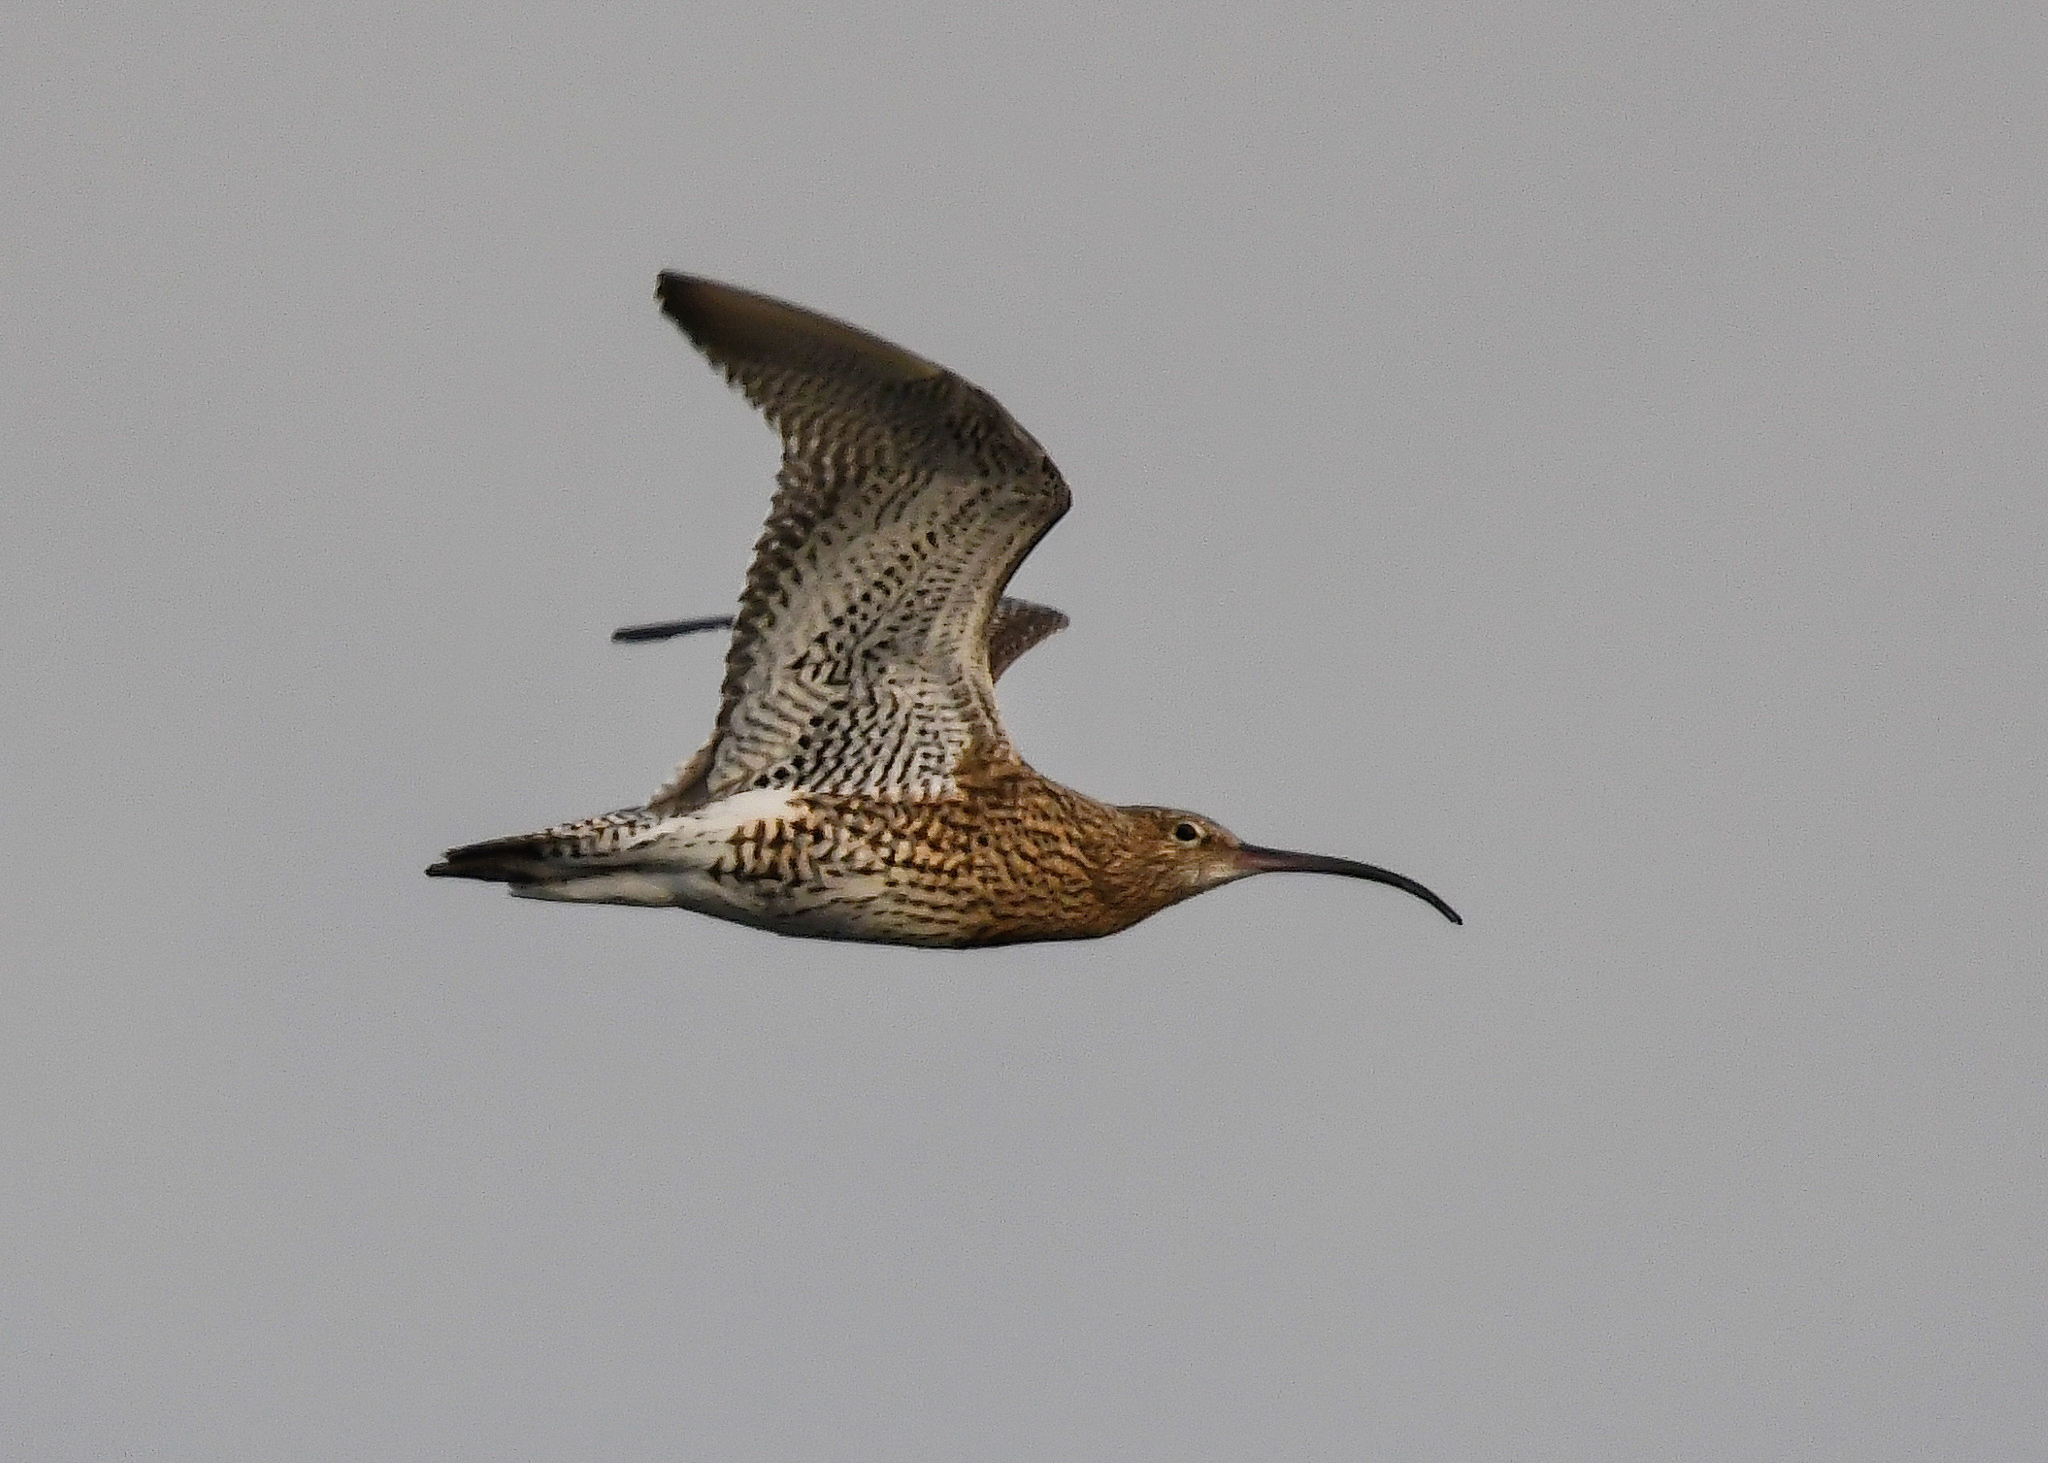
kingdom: Animalia
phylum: Chordata
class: Aves
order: Charadriiformes
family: Scolopacidae
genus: Numenius
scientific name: Numenius arquata
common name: Eurasian curlew
